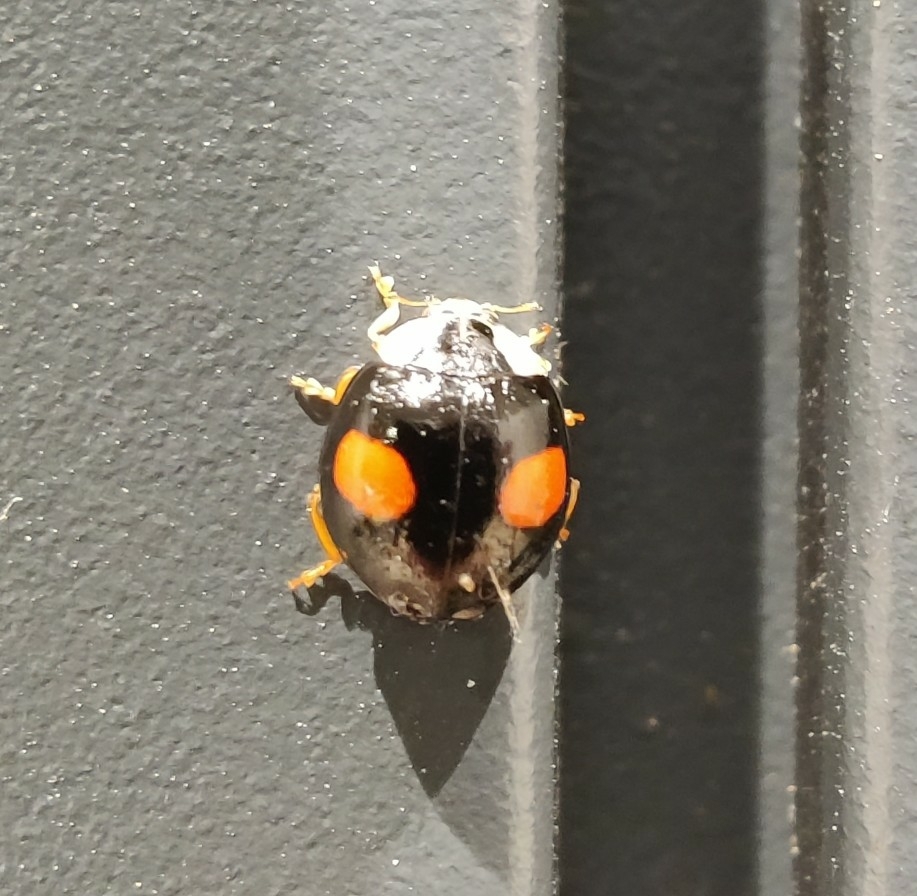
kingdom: Animalia
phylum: Arthropoda
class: Insecta
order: Coleoptera
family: Coccinellidae
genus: Harmonia
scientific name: Harmonia axyridis
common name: Harlequin ladybird
